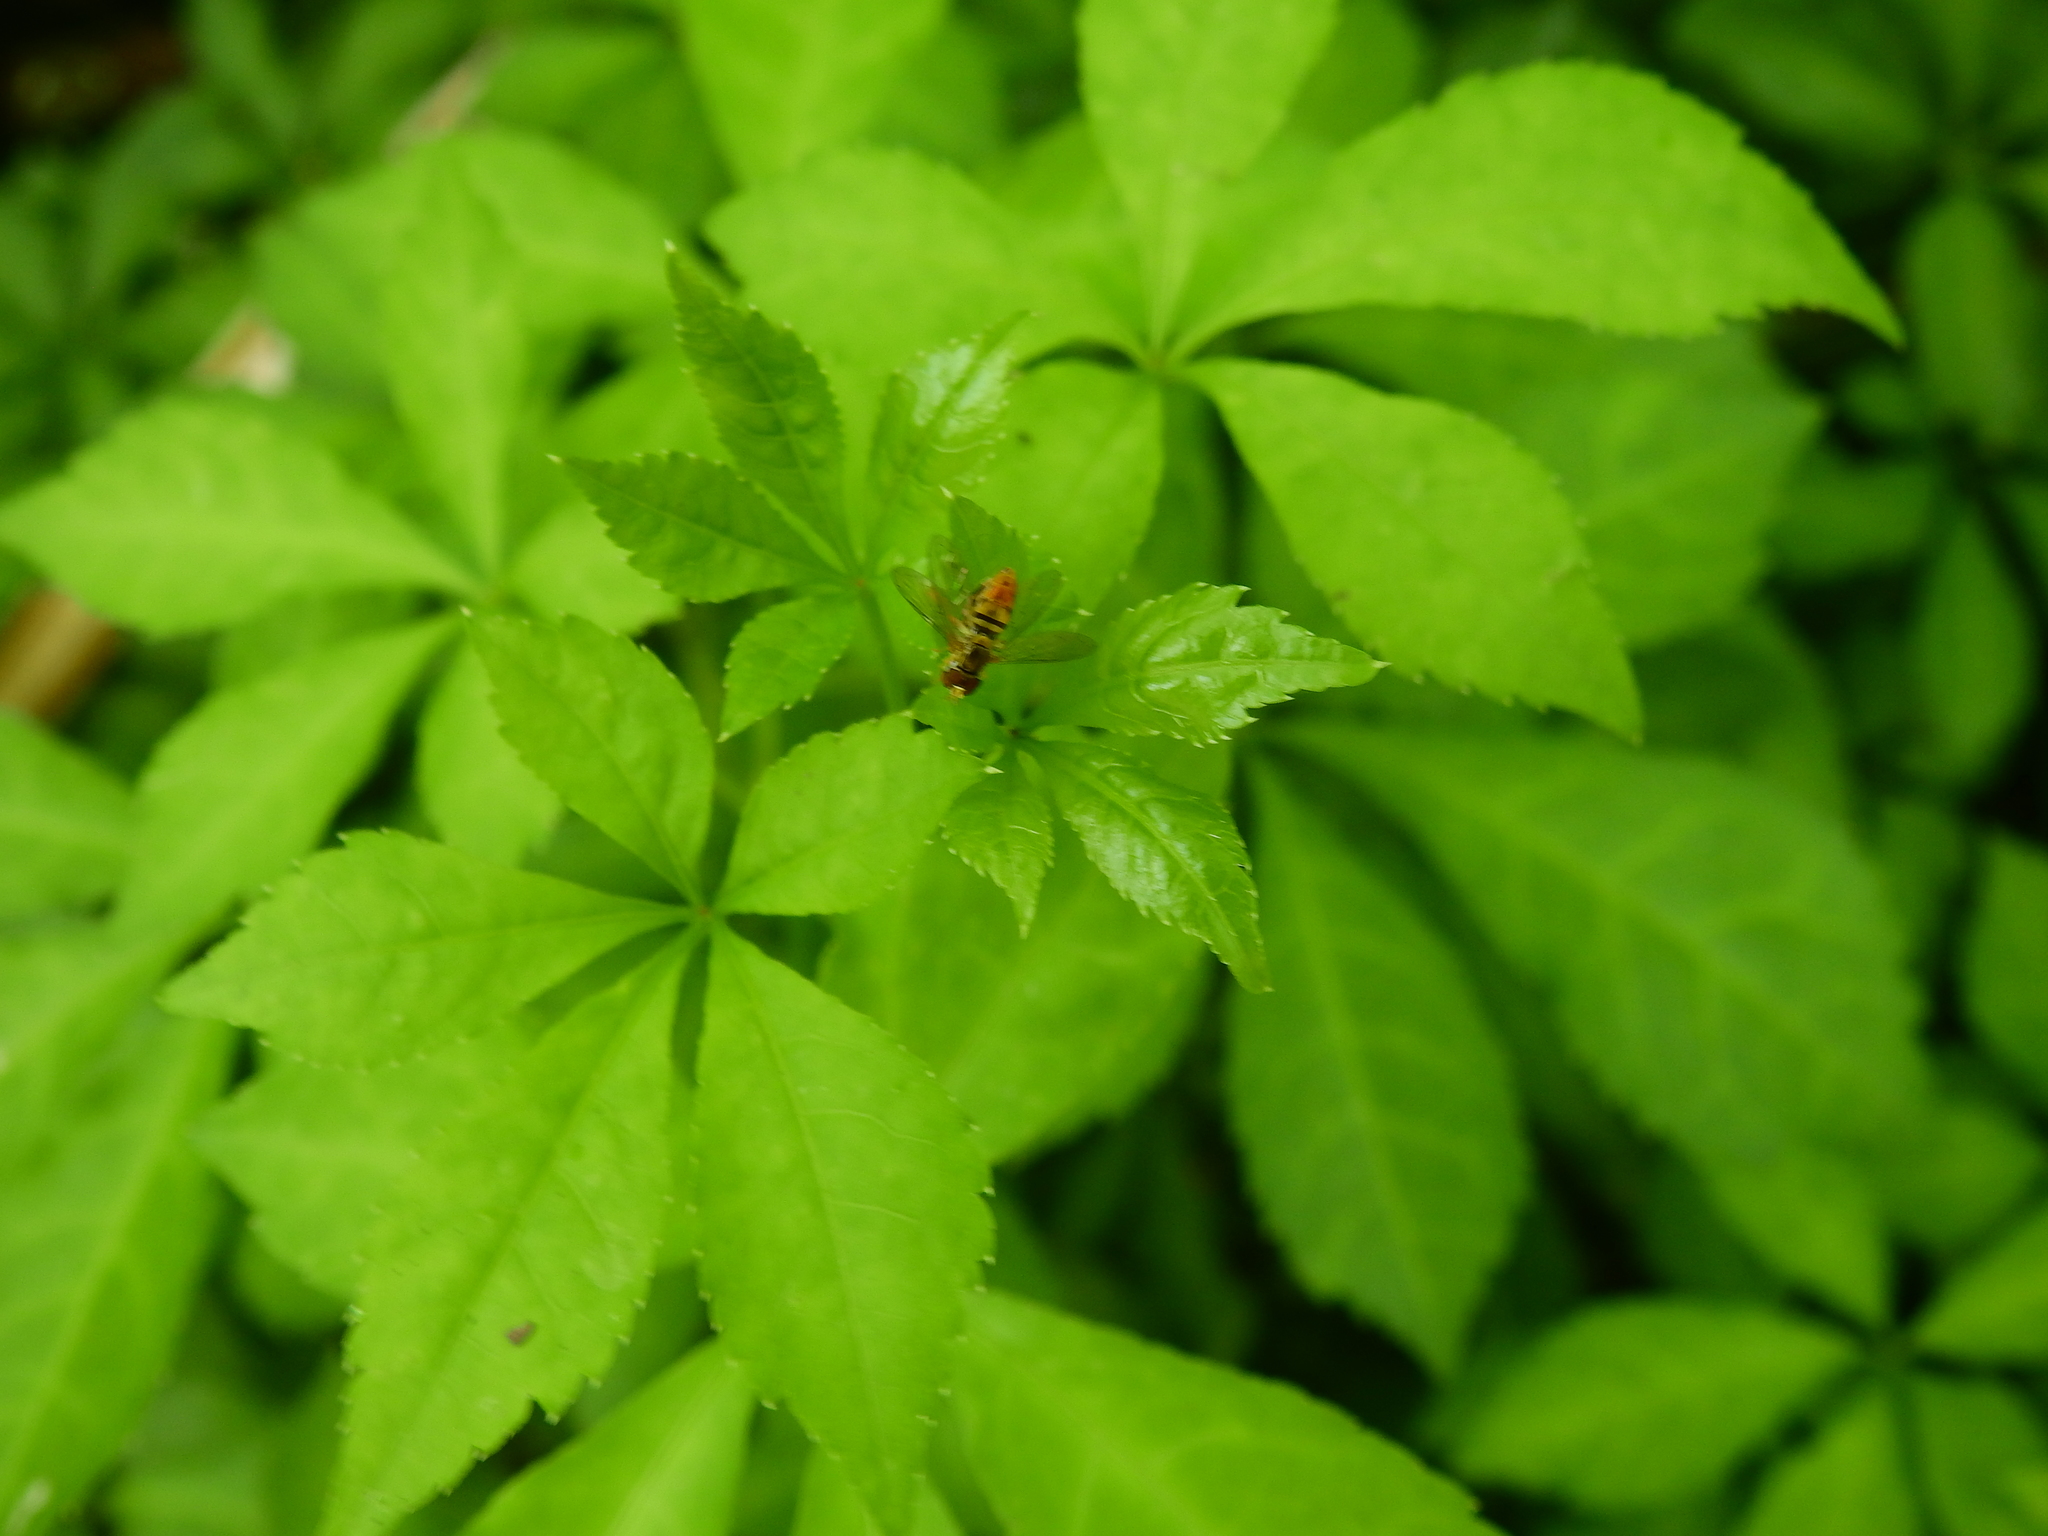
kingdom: Animalia
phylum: Arthropoda
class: Insecta
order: Diptera
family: Syrphidae
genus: Toxomerus
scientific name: Toxomerus marginatus
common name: Syrphid fly
